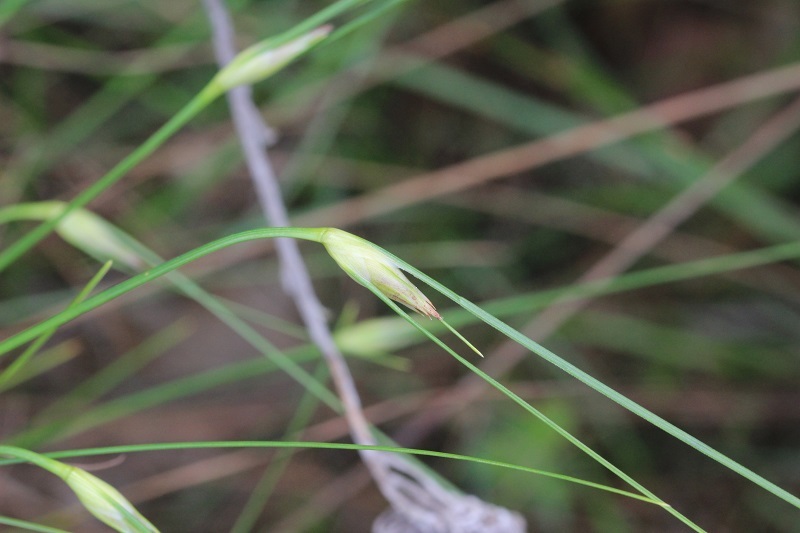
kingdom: Plantae
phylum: Tracheophyta
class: Liliopsida
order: Poales
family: Cyperaceae
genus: Ficinia
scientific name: Ficinia nigrescens
